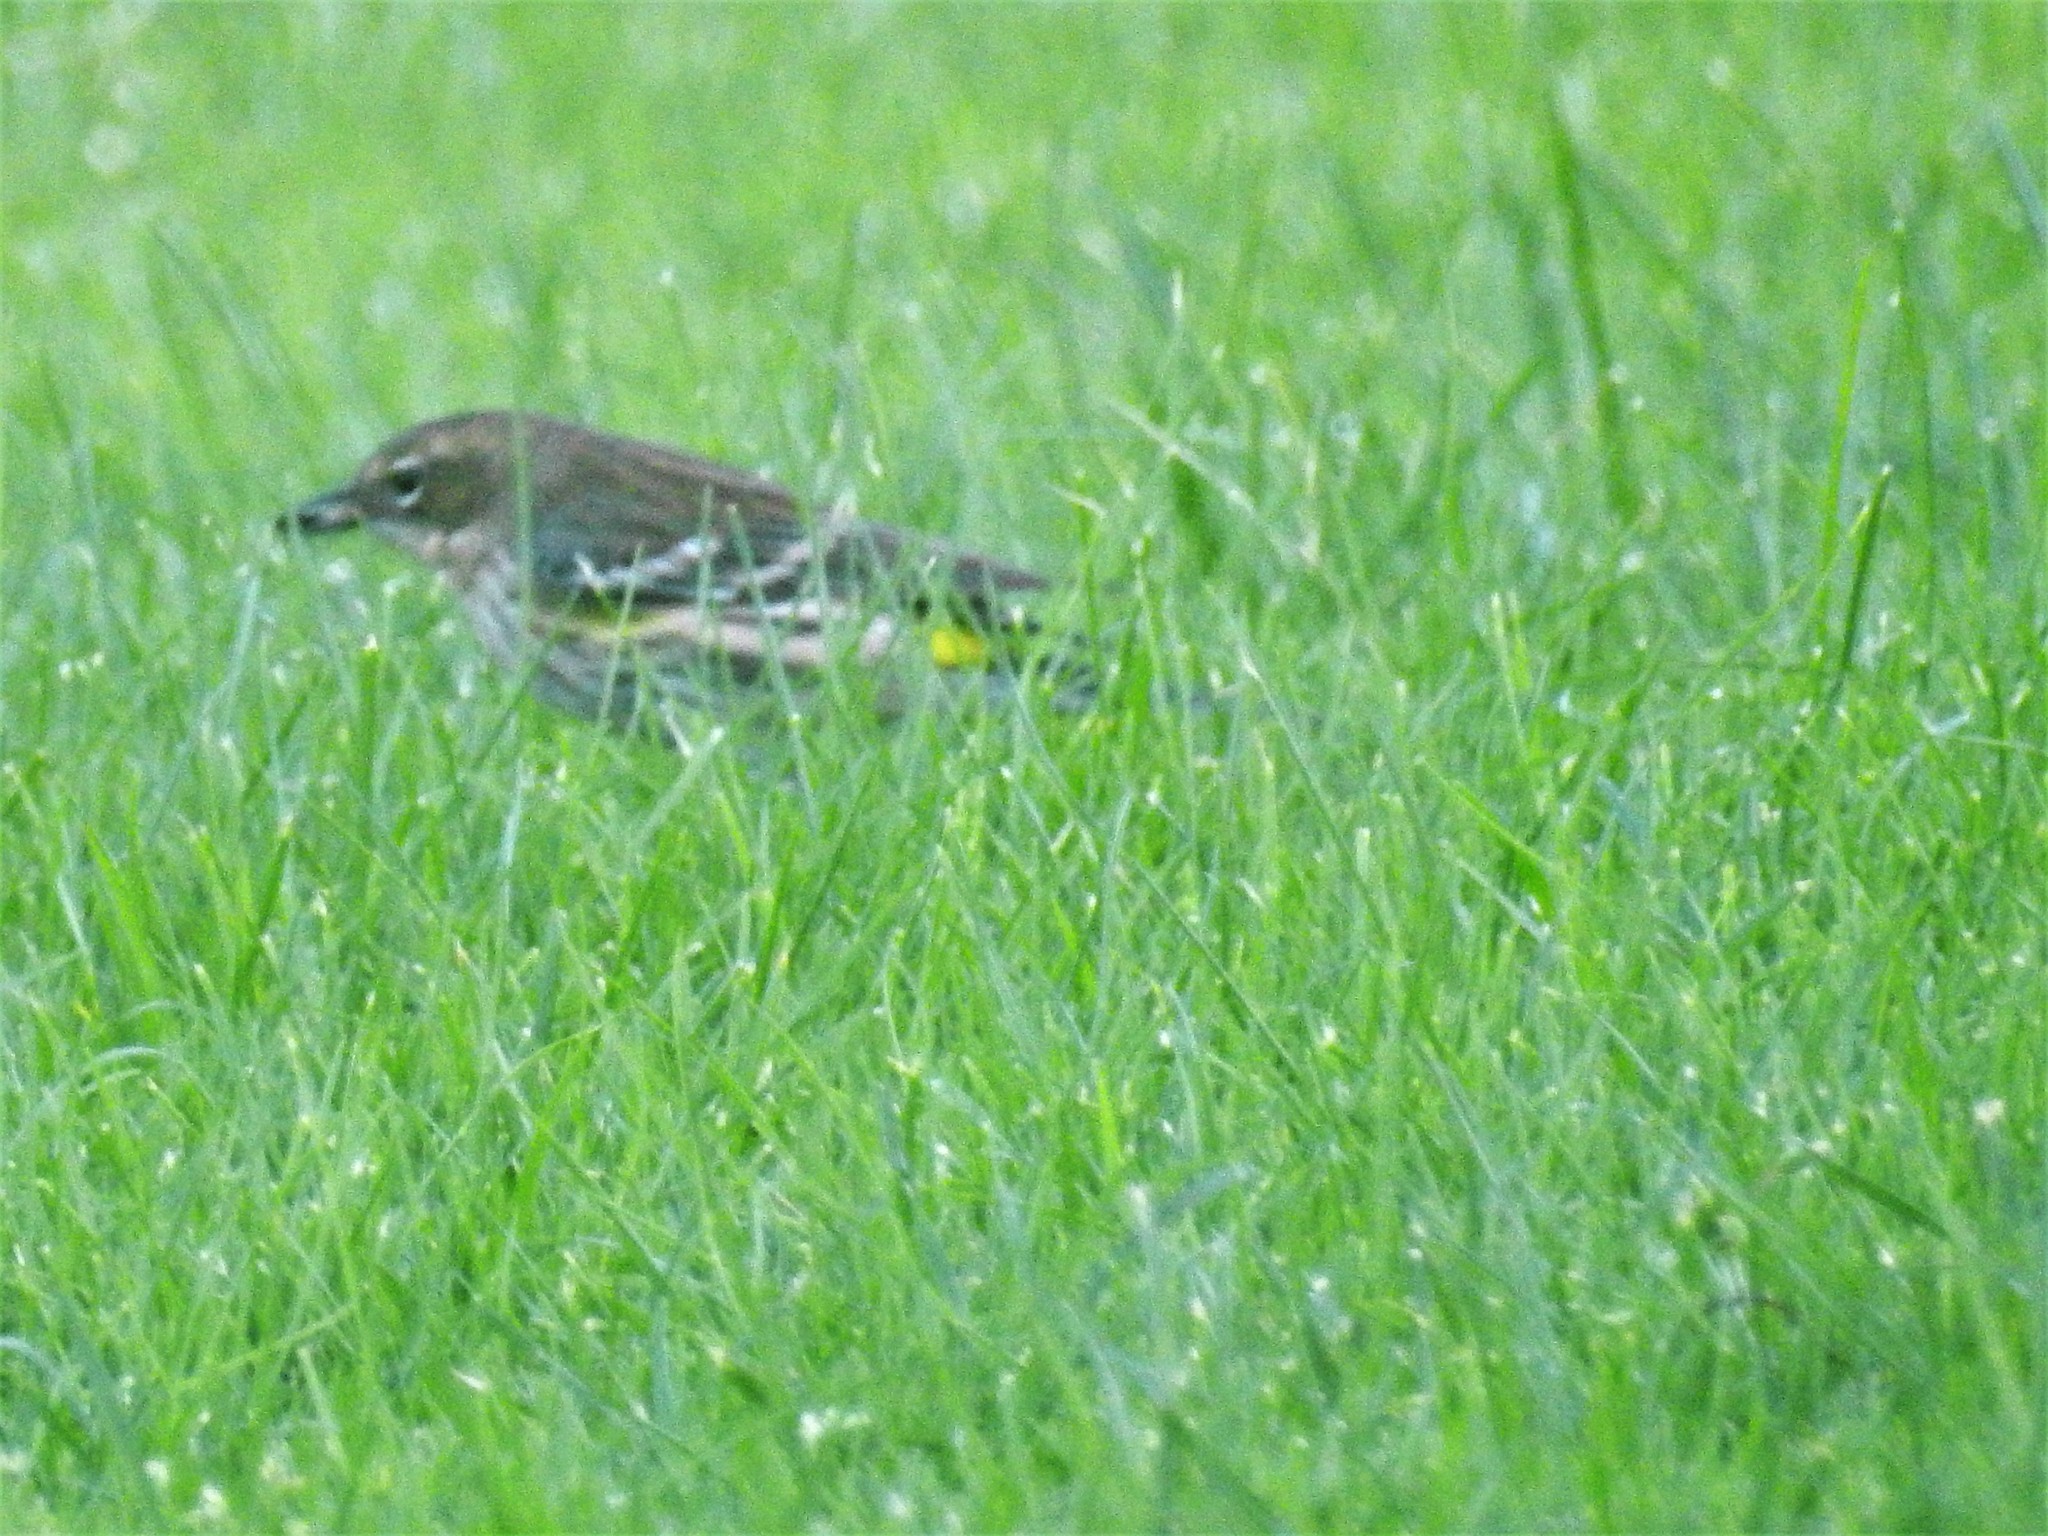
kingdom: Animalia
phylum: Chordata
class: Aves
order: Passeriformes
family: Parulidae
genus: Setophaga
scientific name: Setophaga coronata
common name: Myrtle warbler
